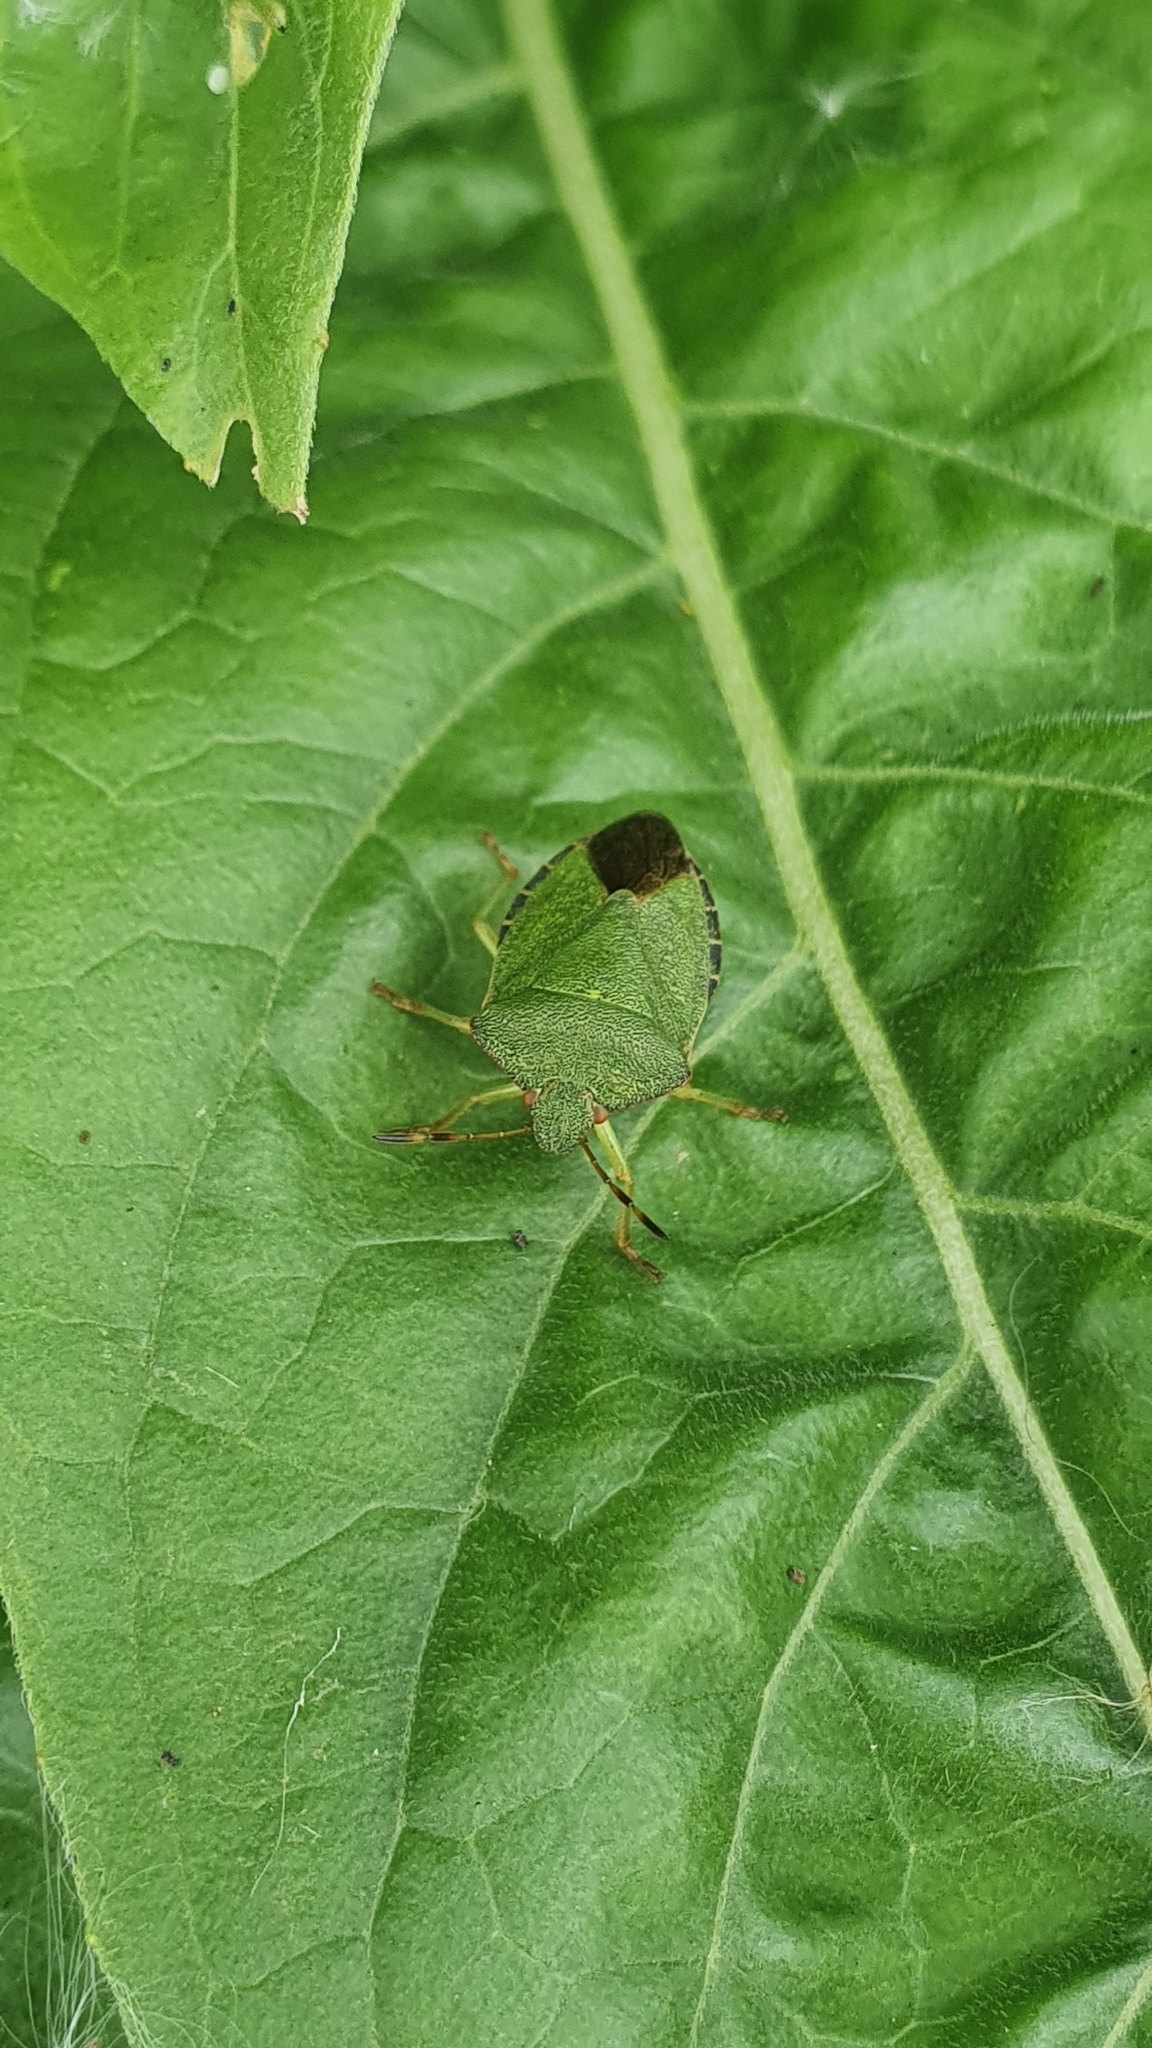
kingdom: Animalia
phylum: Arthropoda
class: Insecta
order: Hemiptera
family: Pentatomidae
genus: Palomena
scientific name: Palomena prasina
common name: Green shieldbug
